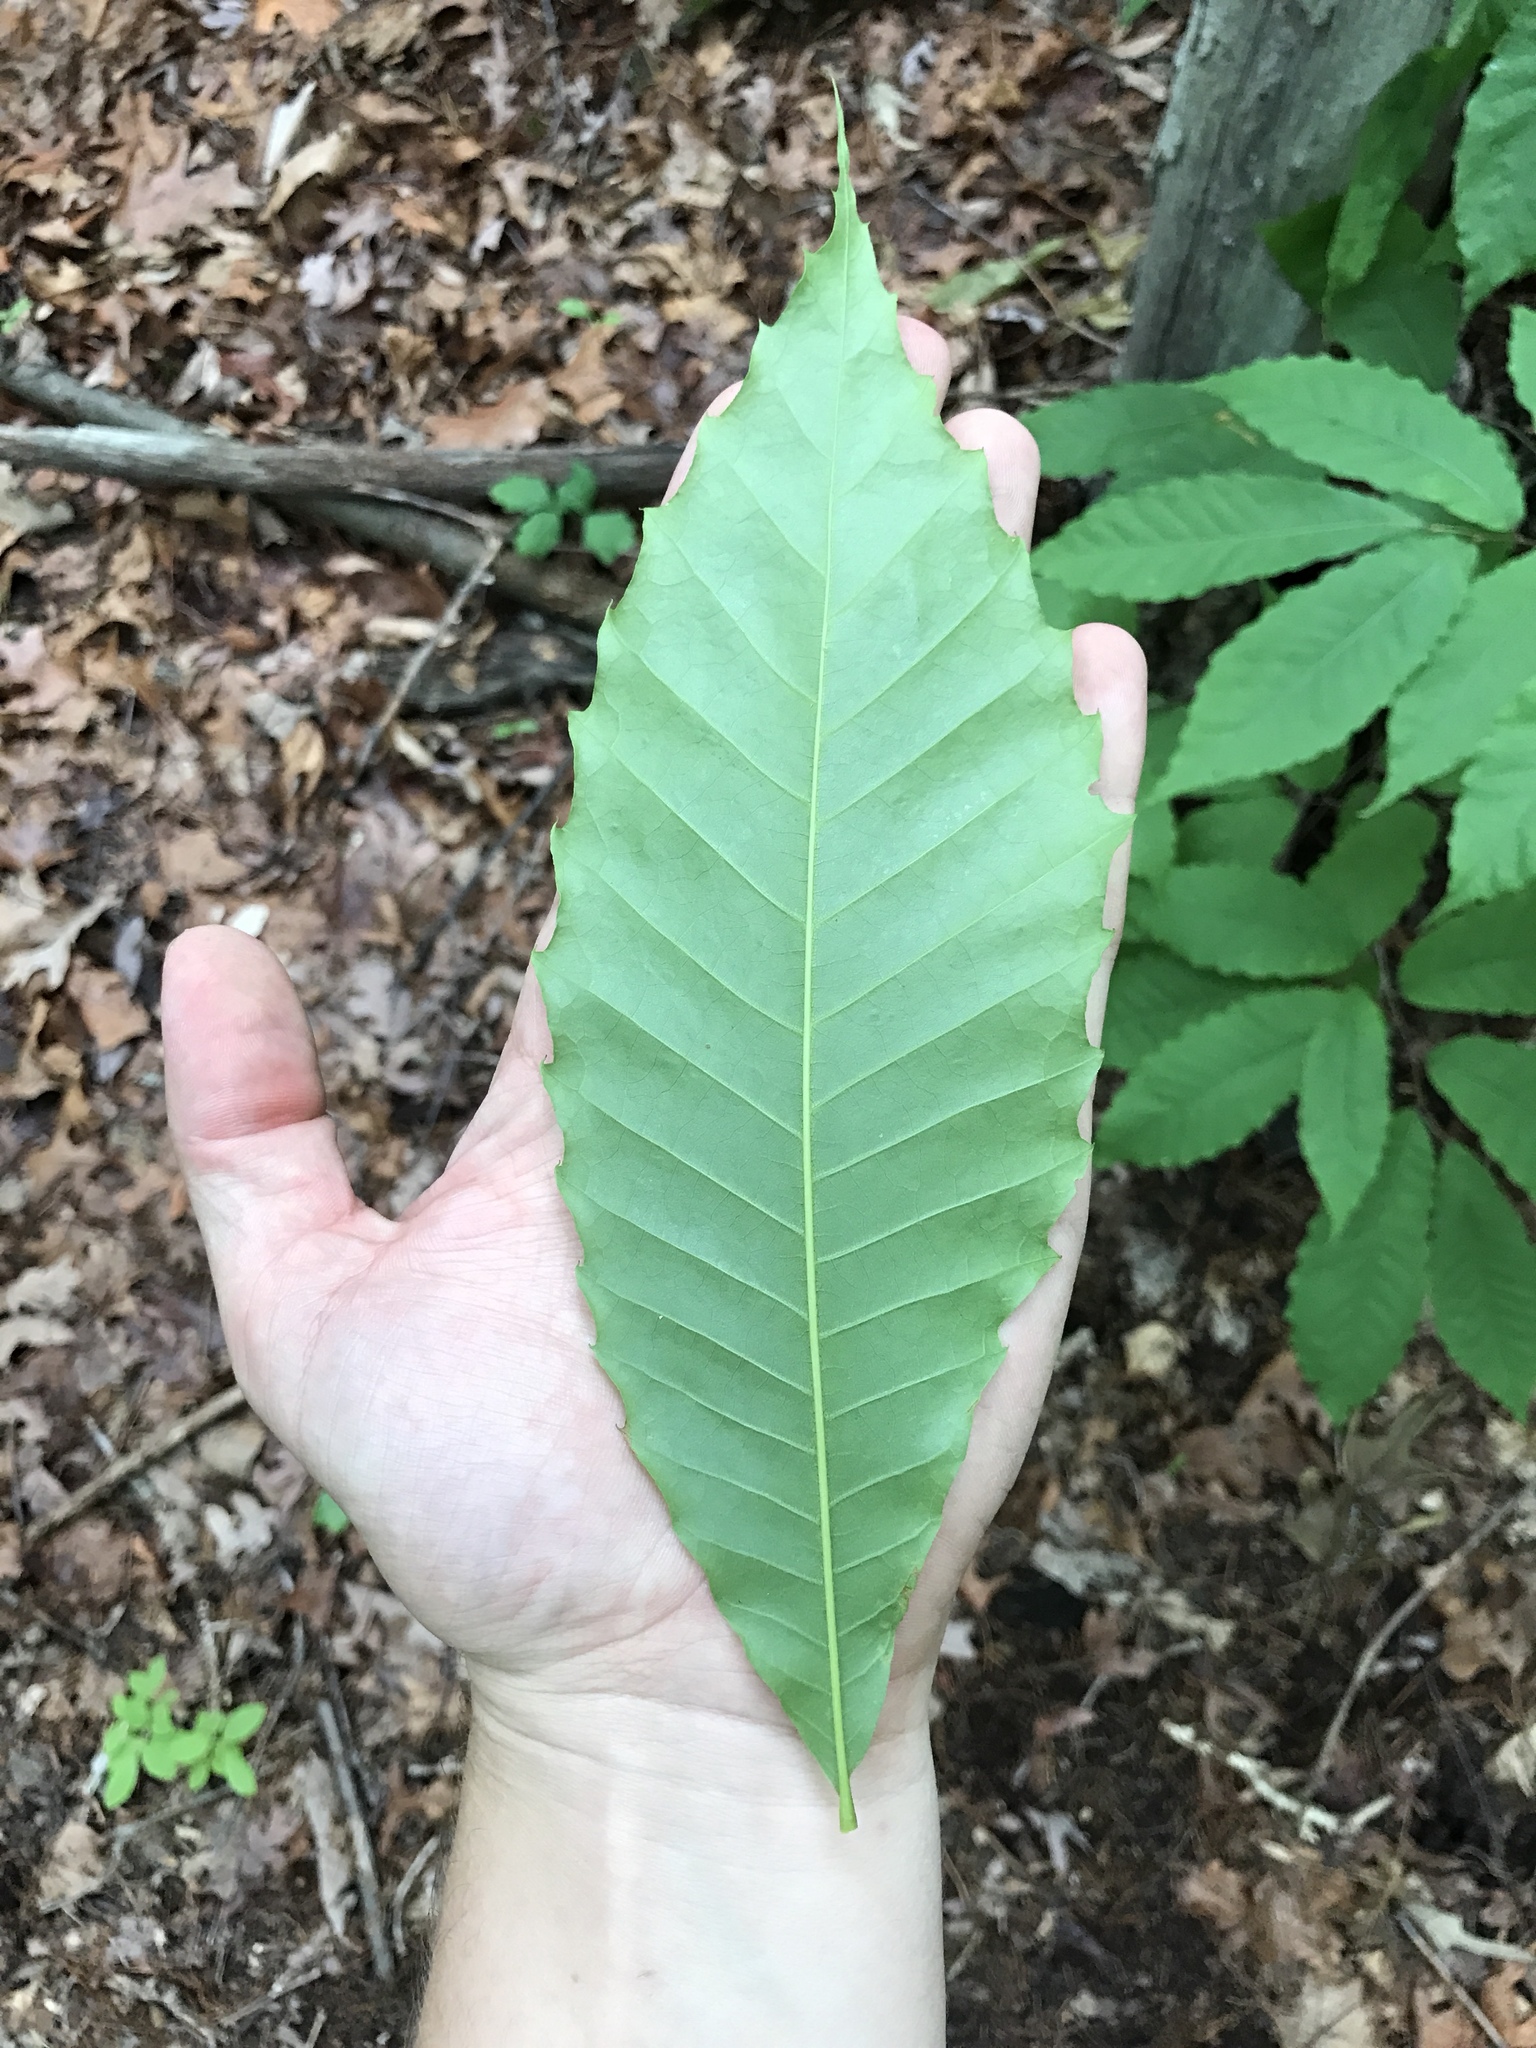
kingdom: Plantae
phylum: Tracheophyta
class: Magnoliopsida
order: Fagales
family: Fagaceae
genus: Castanea
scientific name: Castanea dentata
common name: American chestnut
